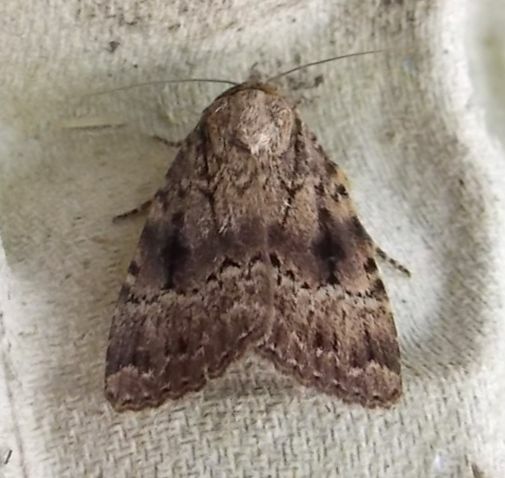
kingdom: Animalia
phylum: Arthropoda
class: Insecta
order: Lepidoptera
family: Noctuidae
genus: Amphipyra
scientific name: Amphipyra berbera
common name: Svensson's copper underwing
